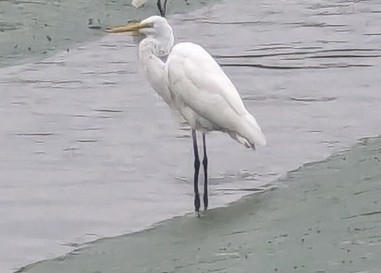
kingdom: Animalia
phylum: Chordata
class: Aves
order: Pelecaniformes
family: Ardeidae
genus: Ardea
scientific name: Ardea alba
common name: Great egret
